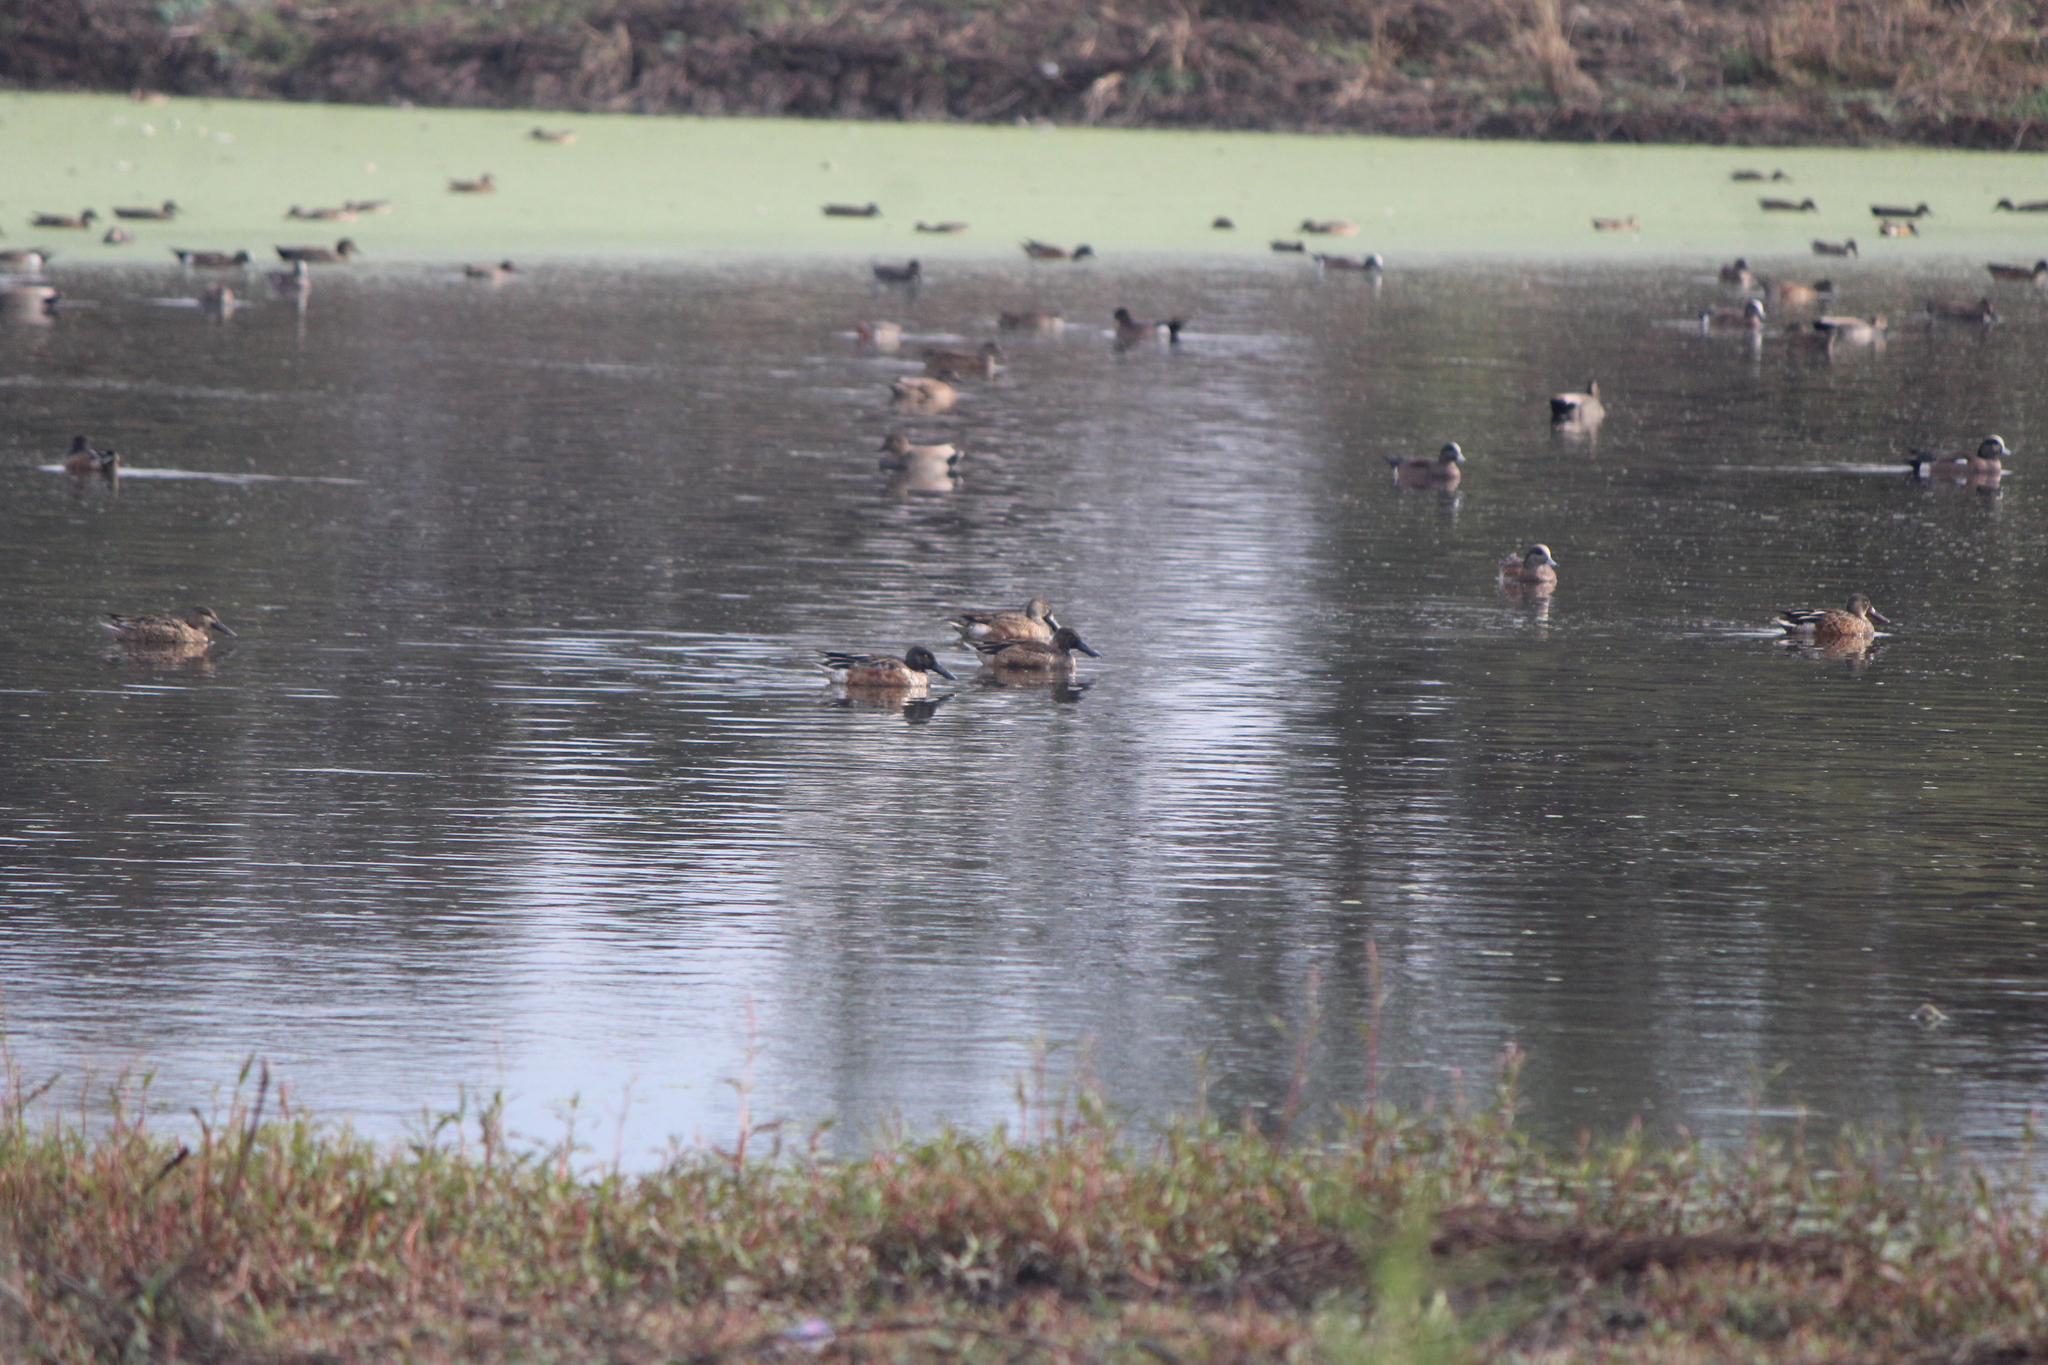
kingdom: Animalia
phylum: Chordata
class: Aves
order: Anseriformes
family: Anatidae
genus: Spatula
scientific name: Spatula clypeata
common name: Northern shoveler
